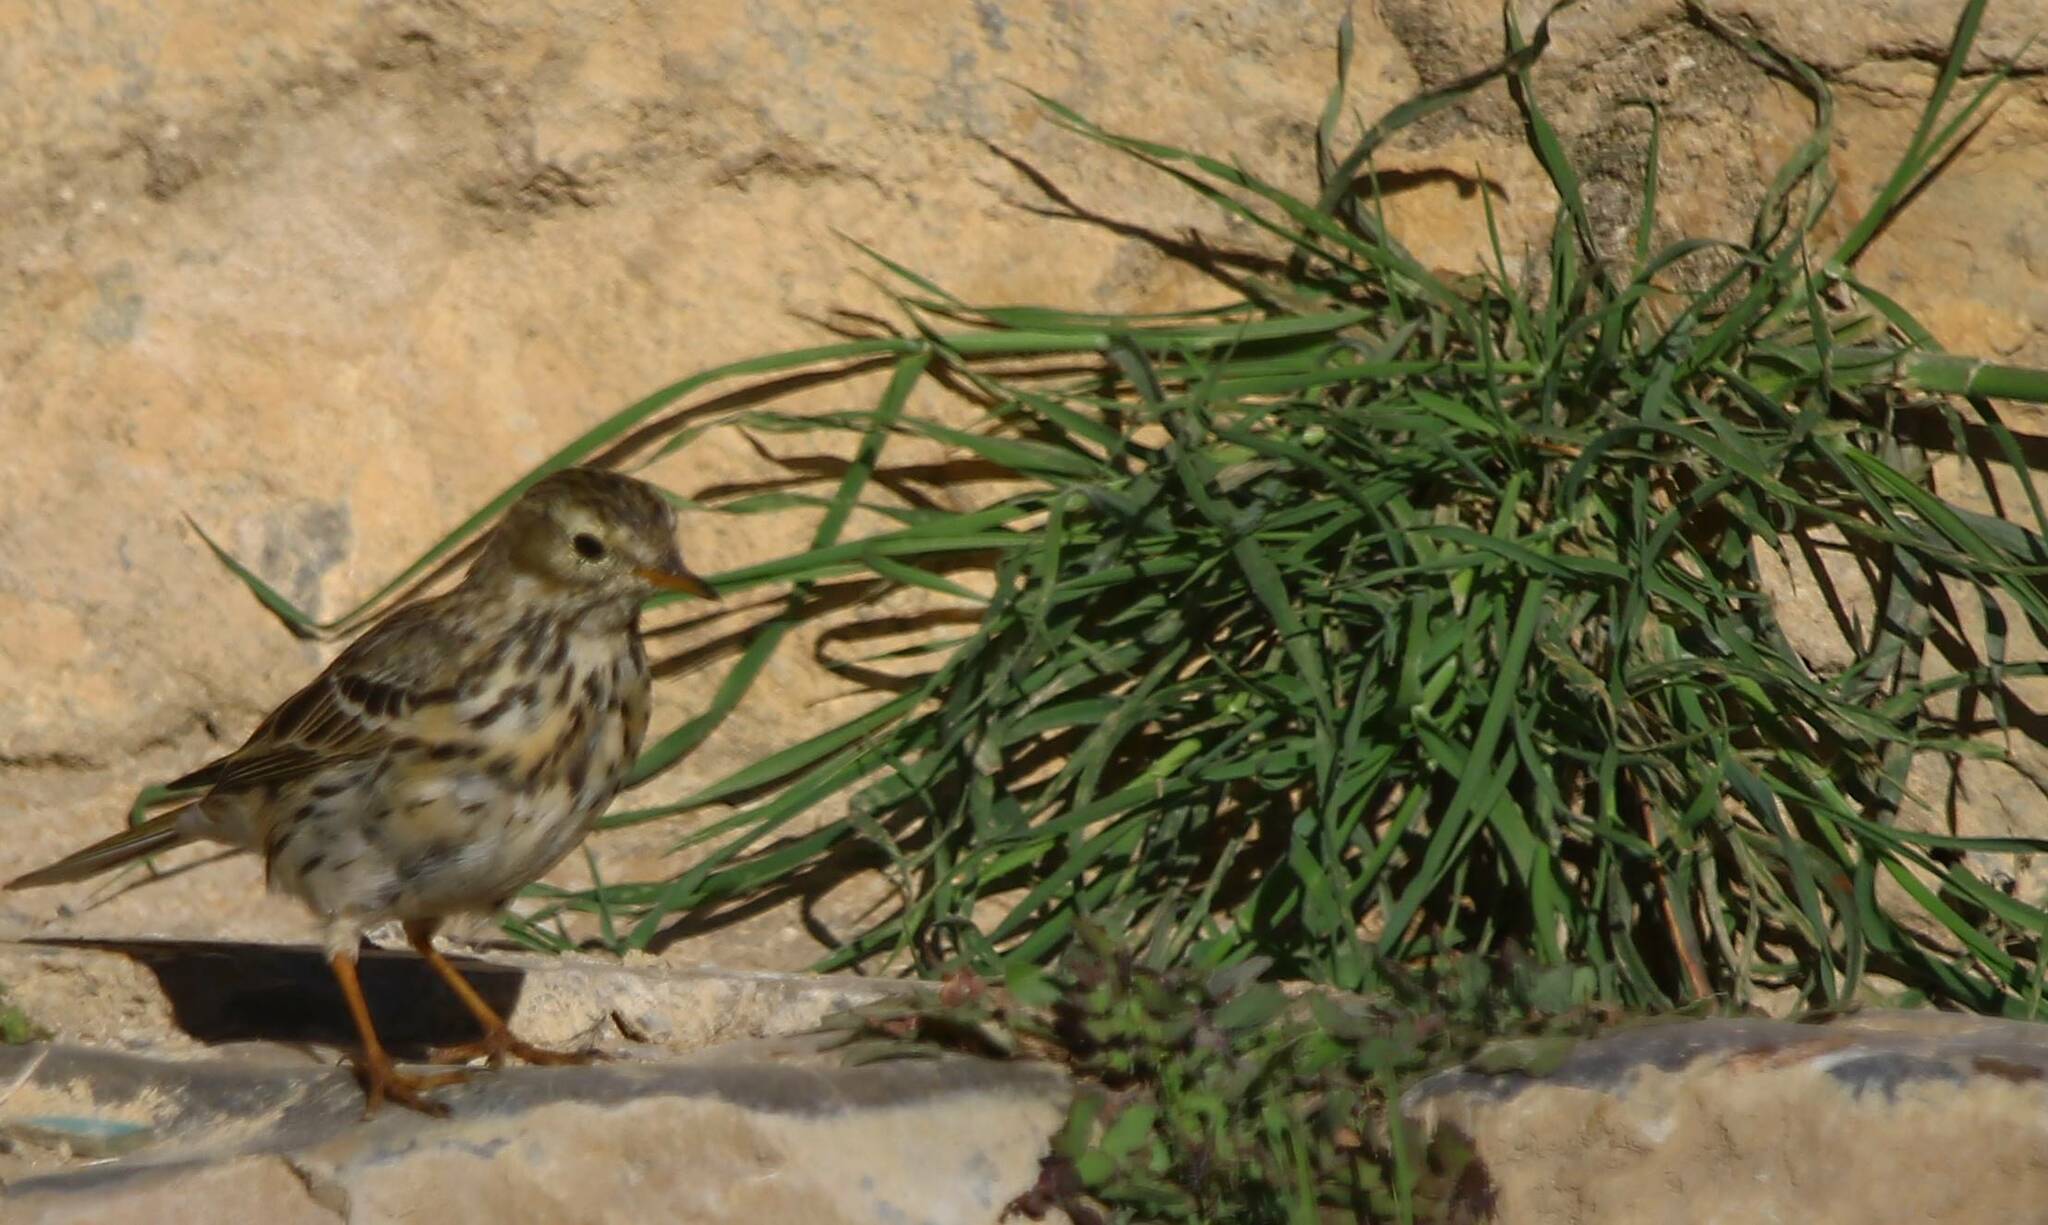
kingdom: Animalia
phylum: Chordata
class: Aves
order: Passeriformes
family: Motacillidae
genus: Anthus
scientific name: Anthus pratensis
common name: Meadow pipit
